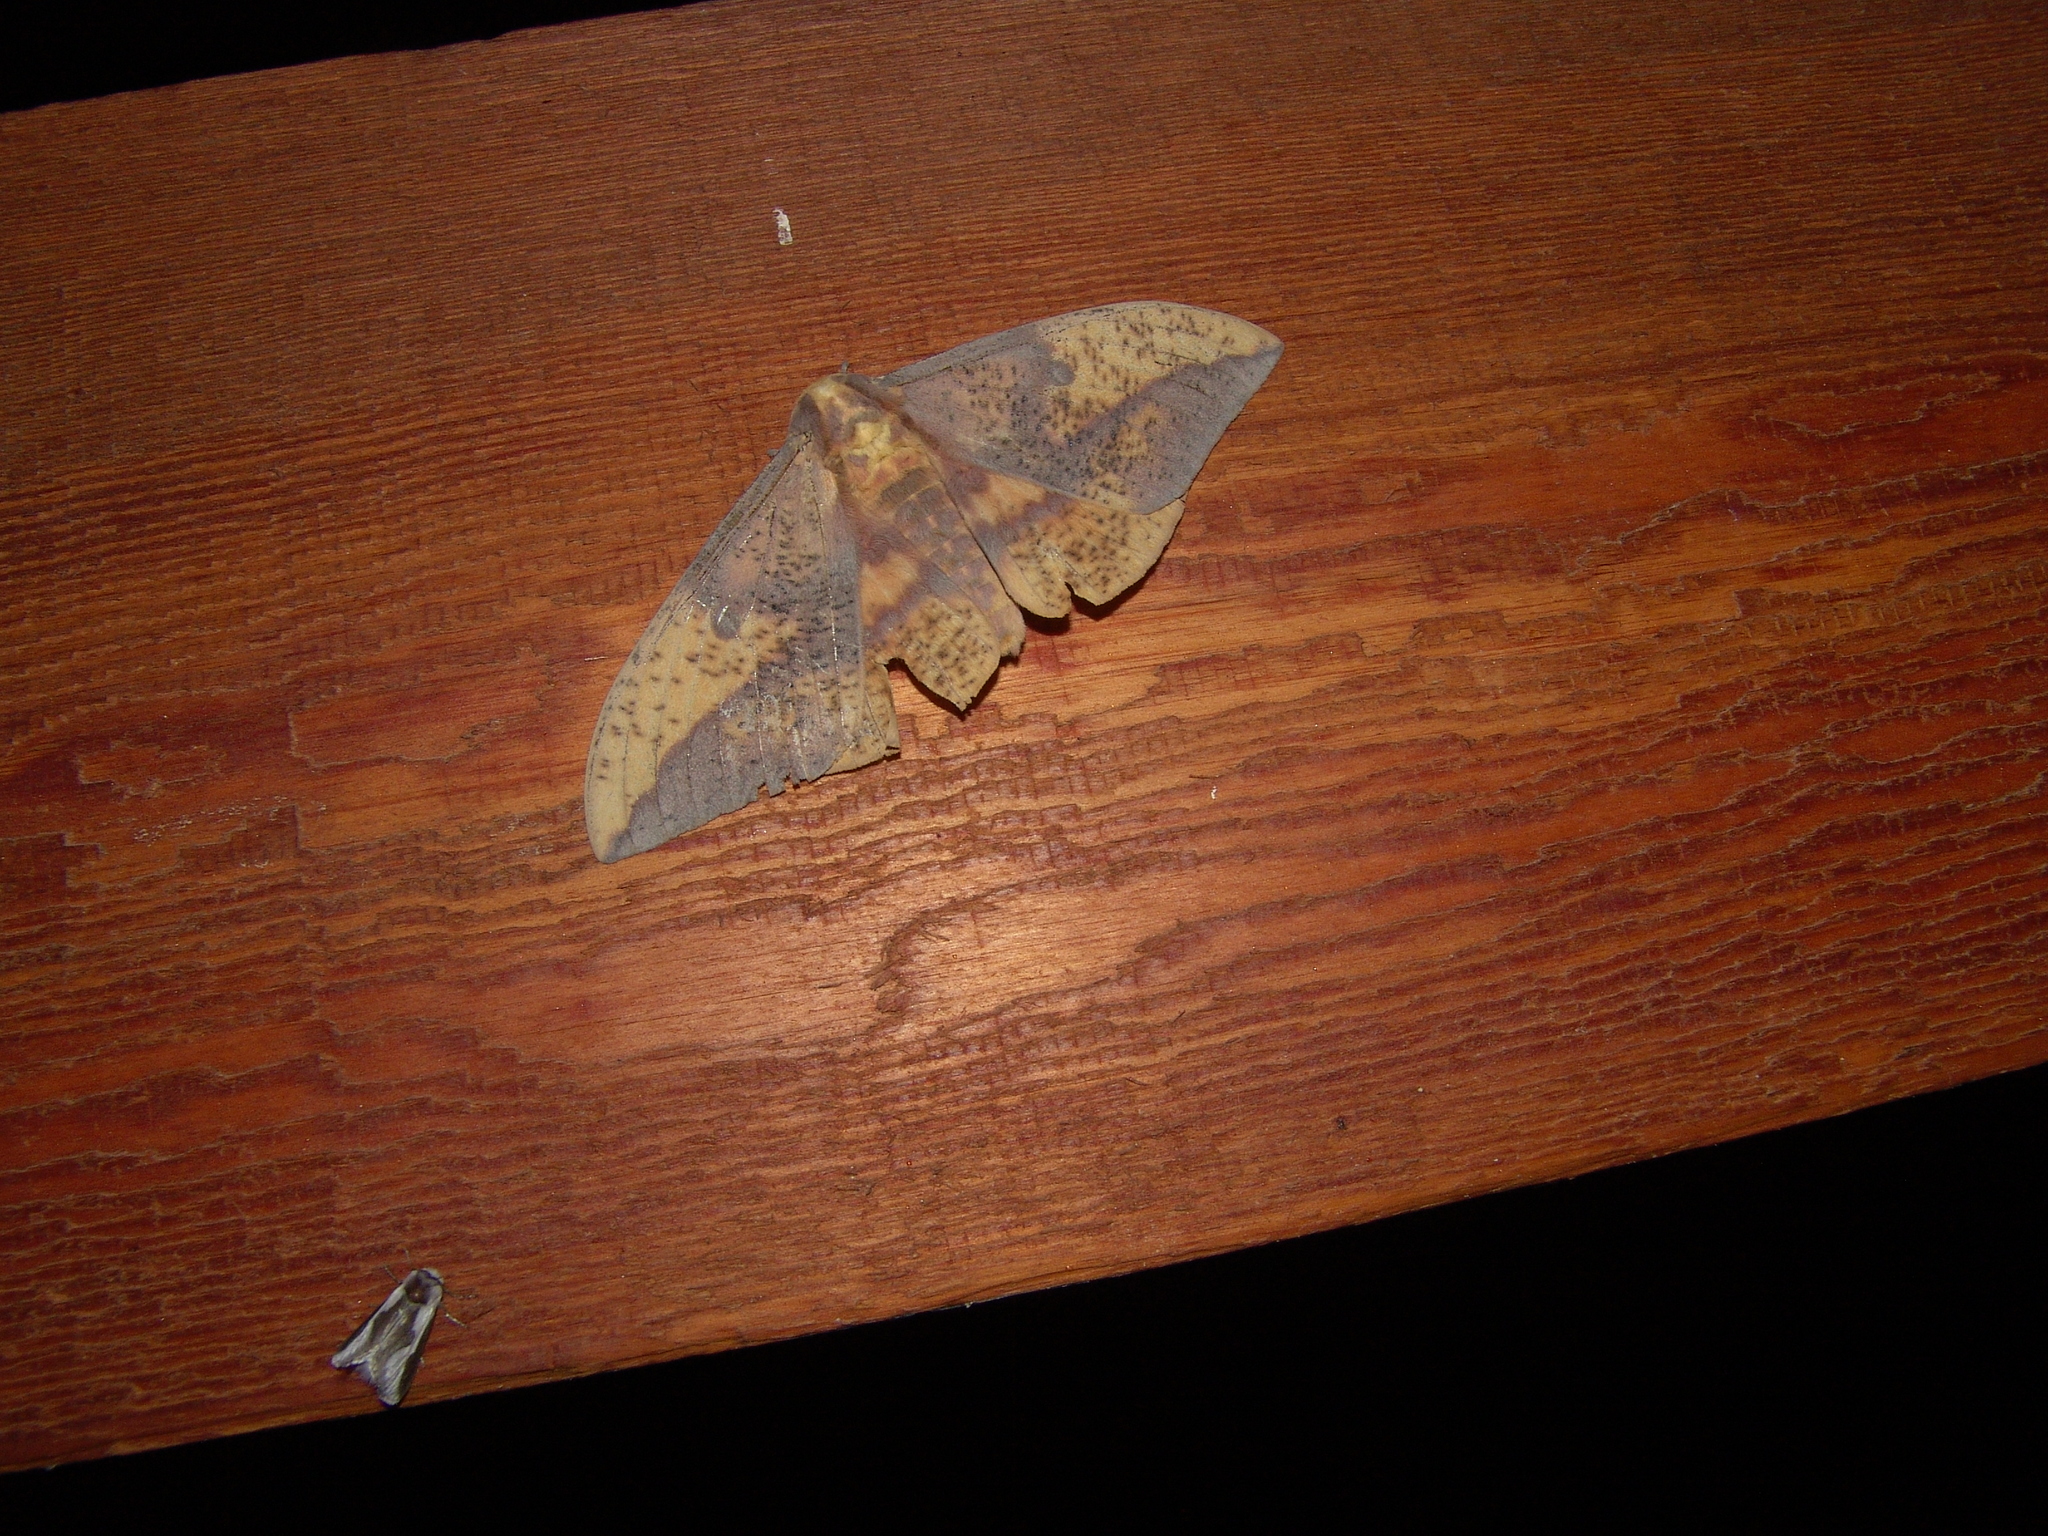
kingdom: Animalia
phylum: Arthropoda
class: Insecta
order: Lepidoptera
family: Saturniidae
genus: Eacles
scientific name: Eacles oslari
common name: Oslar's imperial moth
